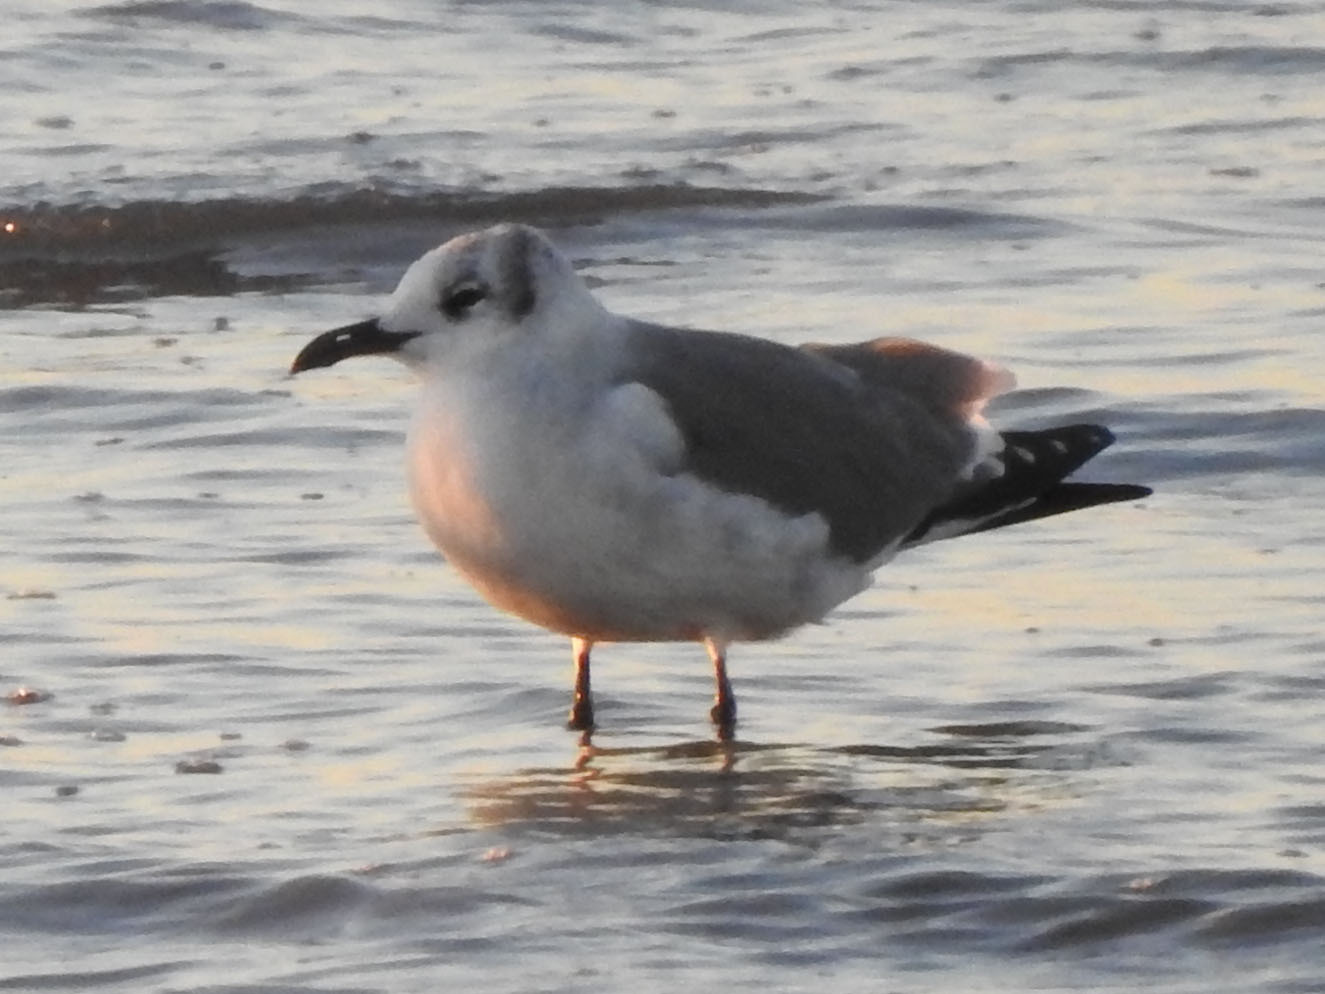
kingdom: Animalia
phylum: Chordata
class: Aves
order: Charadriiformes
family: Laridae
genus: Leucophaeus
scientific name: Leucophaeus atricilla
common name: Laughing gull
